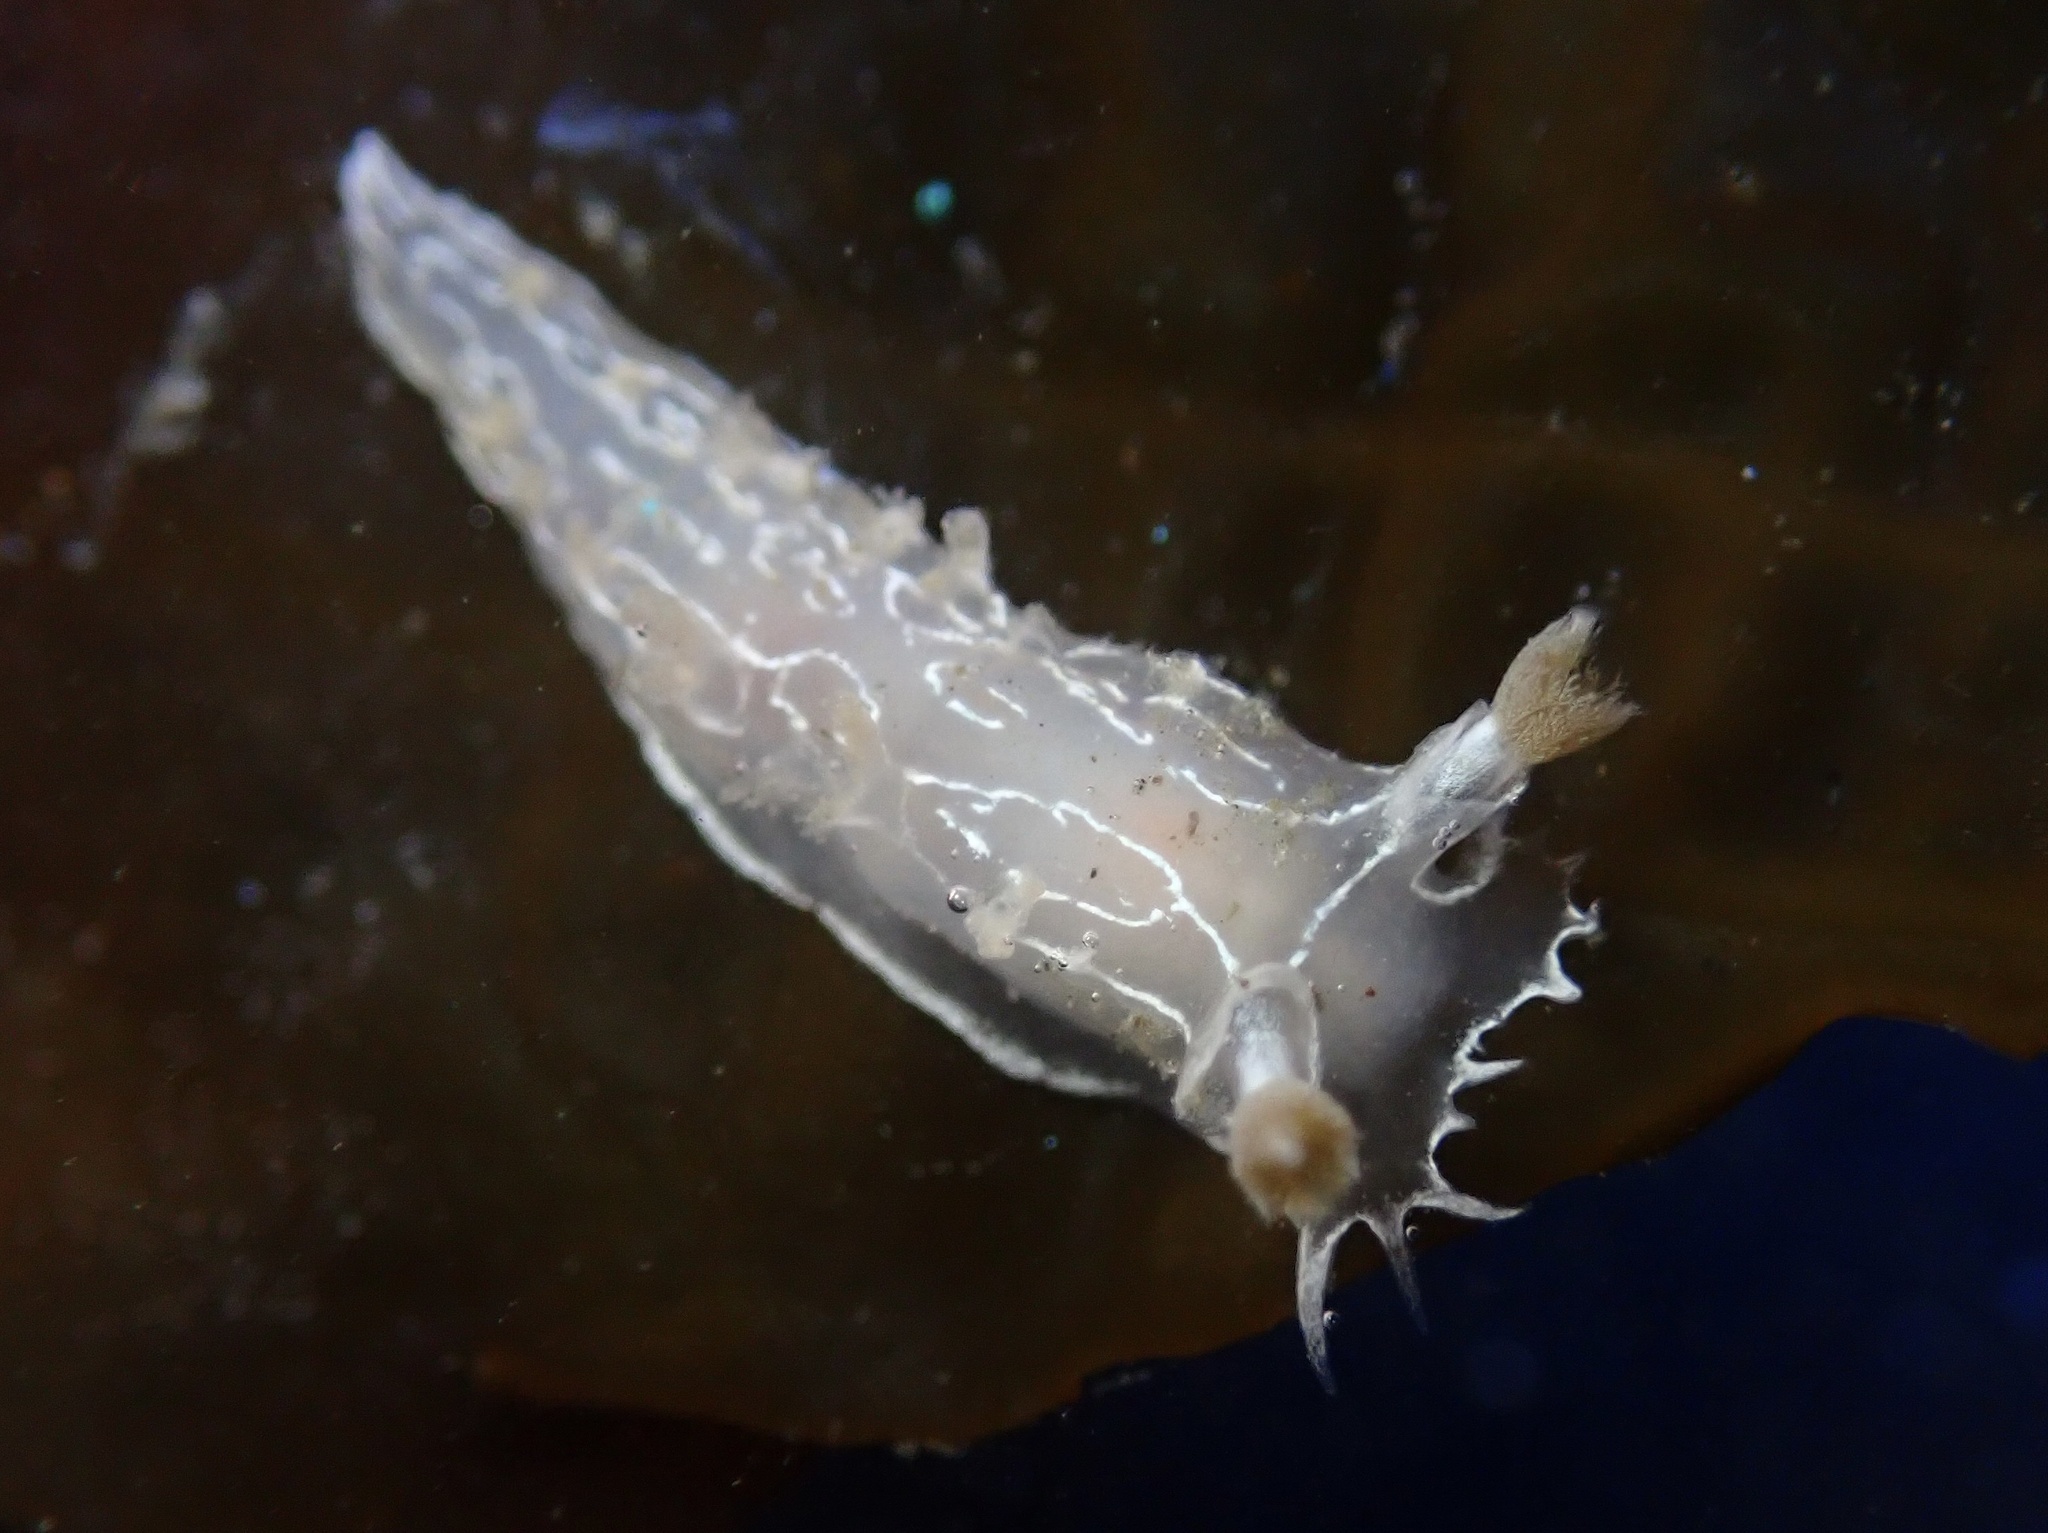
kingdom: Animalia
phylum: Mollusca
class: Gastropoda
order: Nudibranchia
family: Tritoniidae
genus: Tritonia
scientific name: Tritonia festiva
